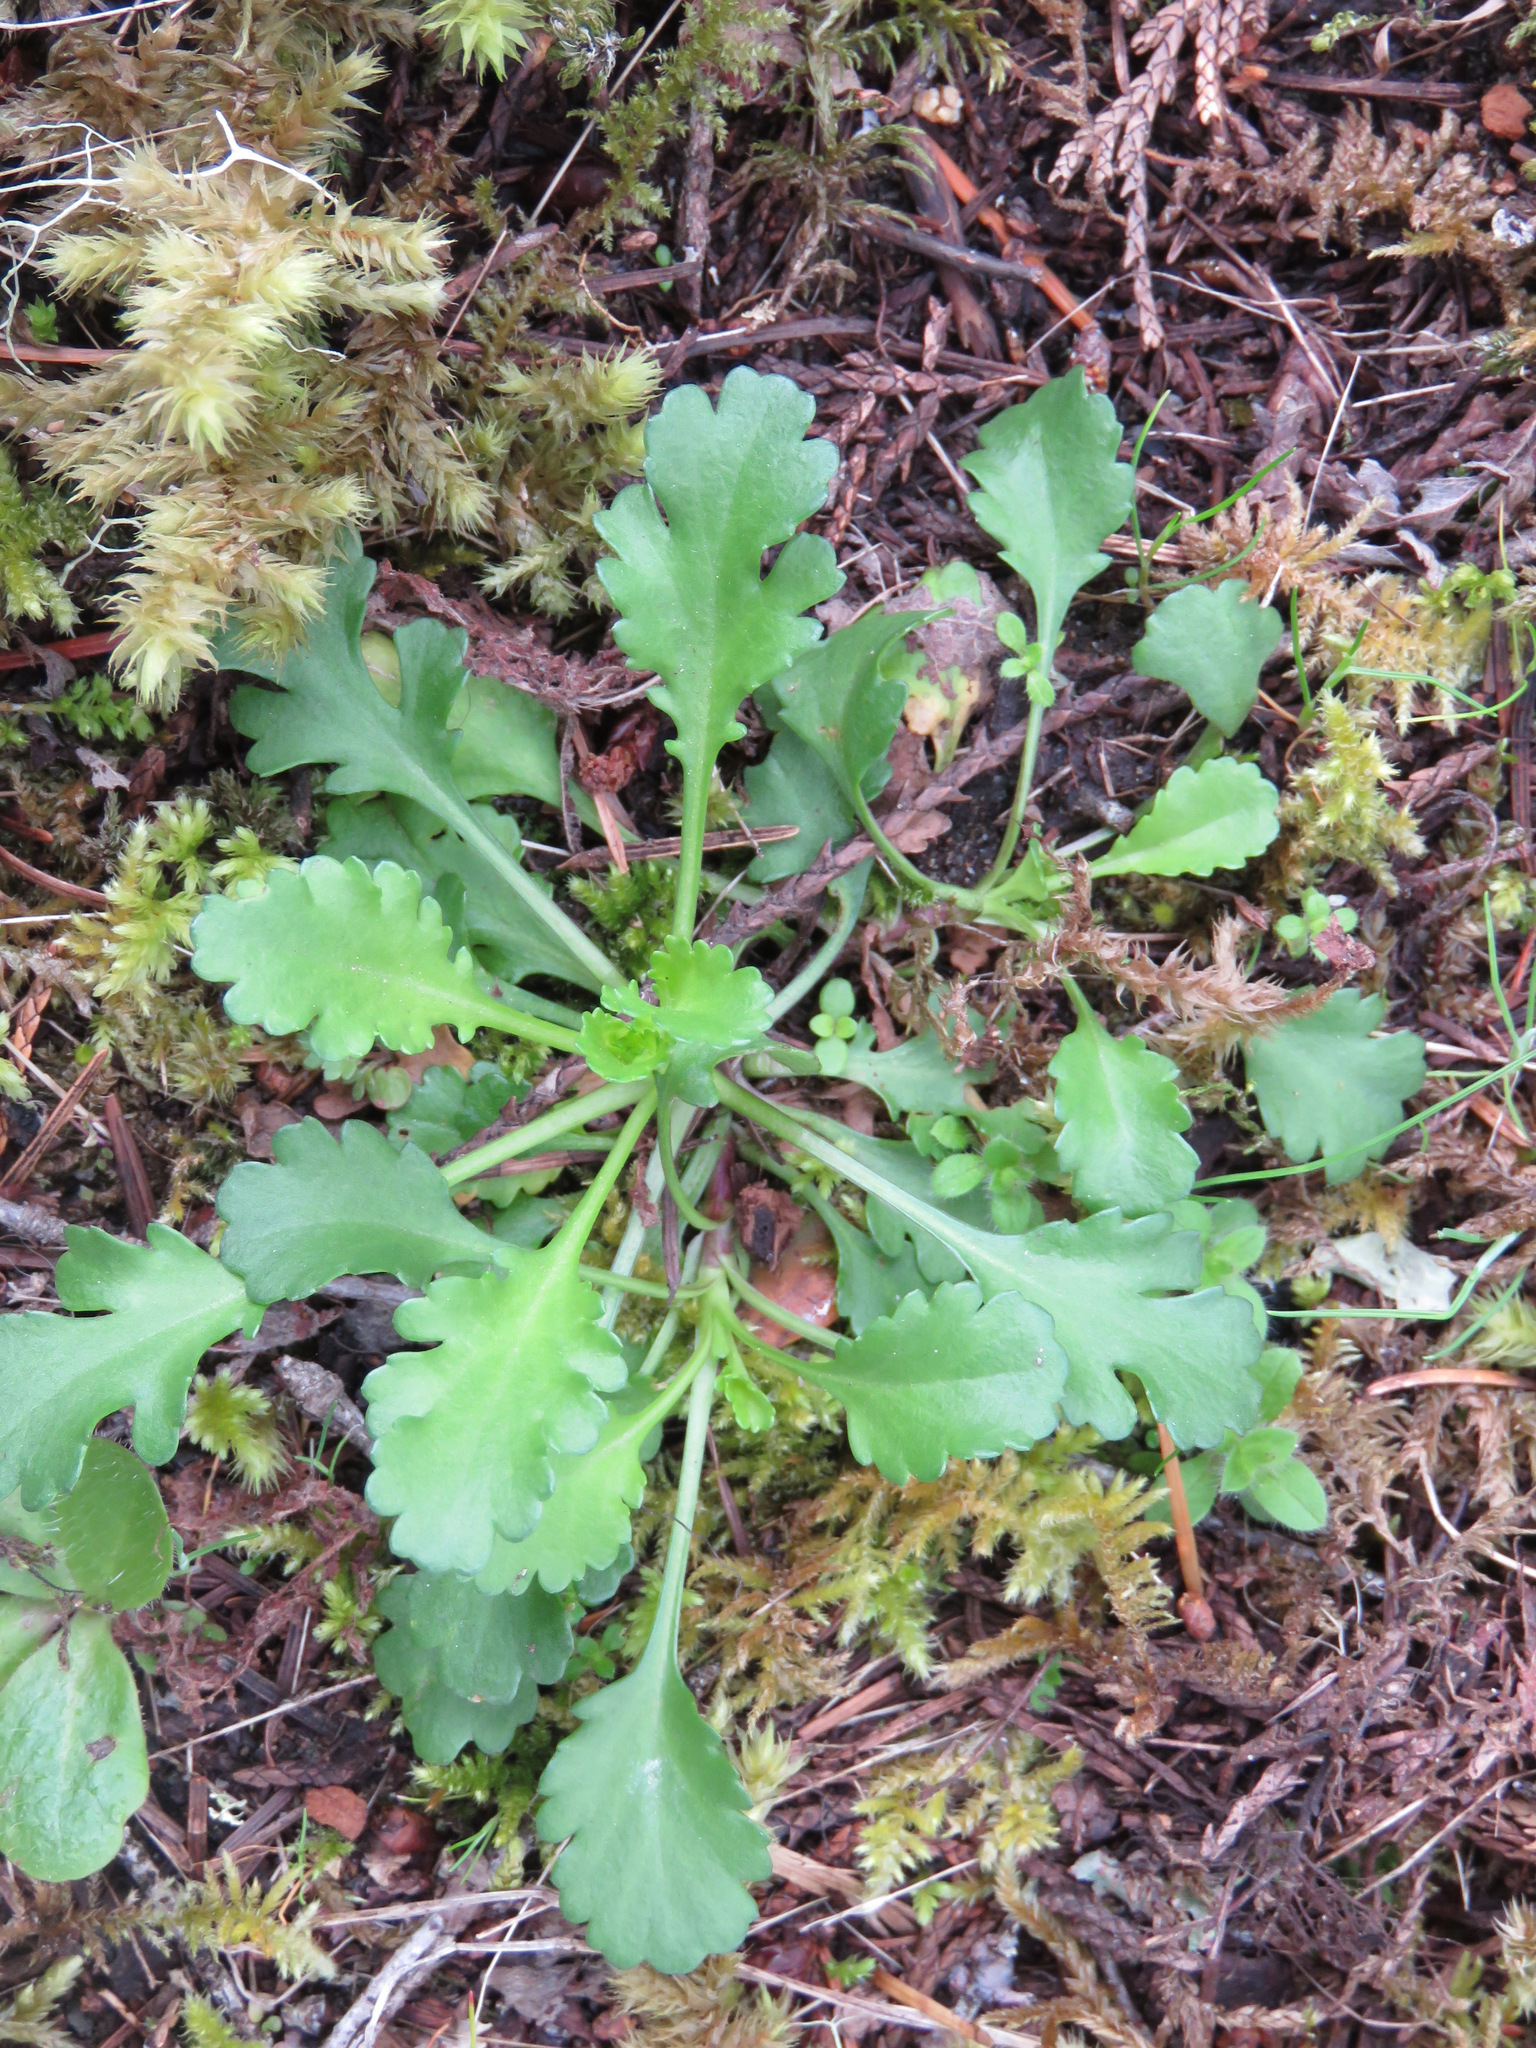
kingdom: Plantae
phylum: Tracheophyta
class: Magnoliopsida
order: Asterales
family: Asteraceae
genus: Leucanthemum
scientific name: Leucanthemum vulgare
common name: Oxeye daisy
